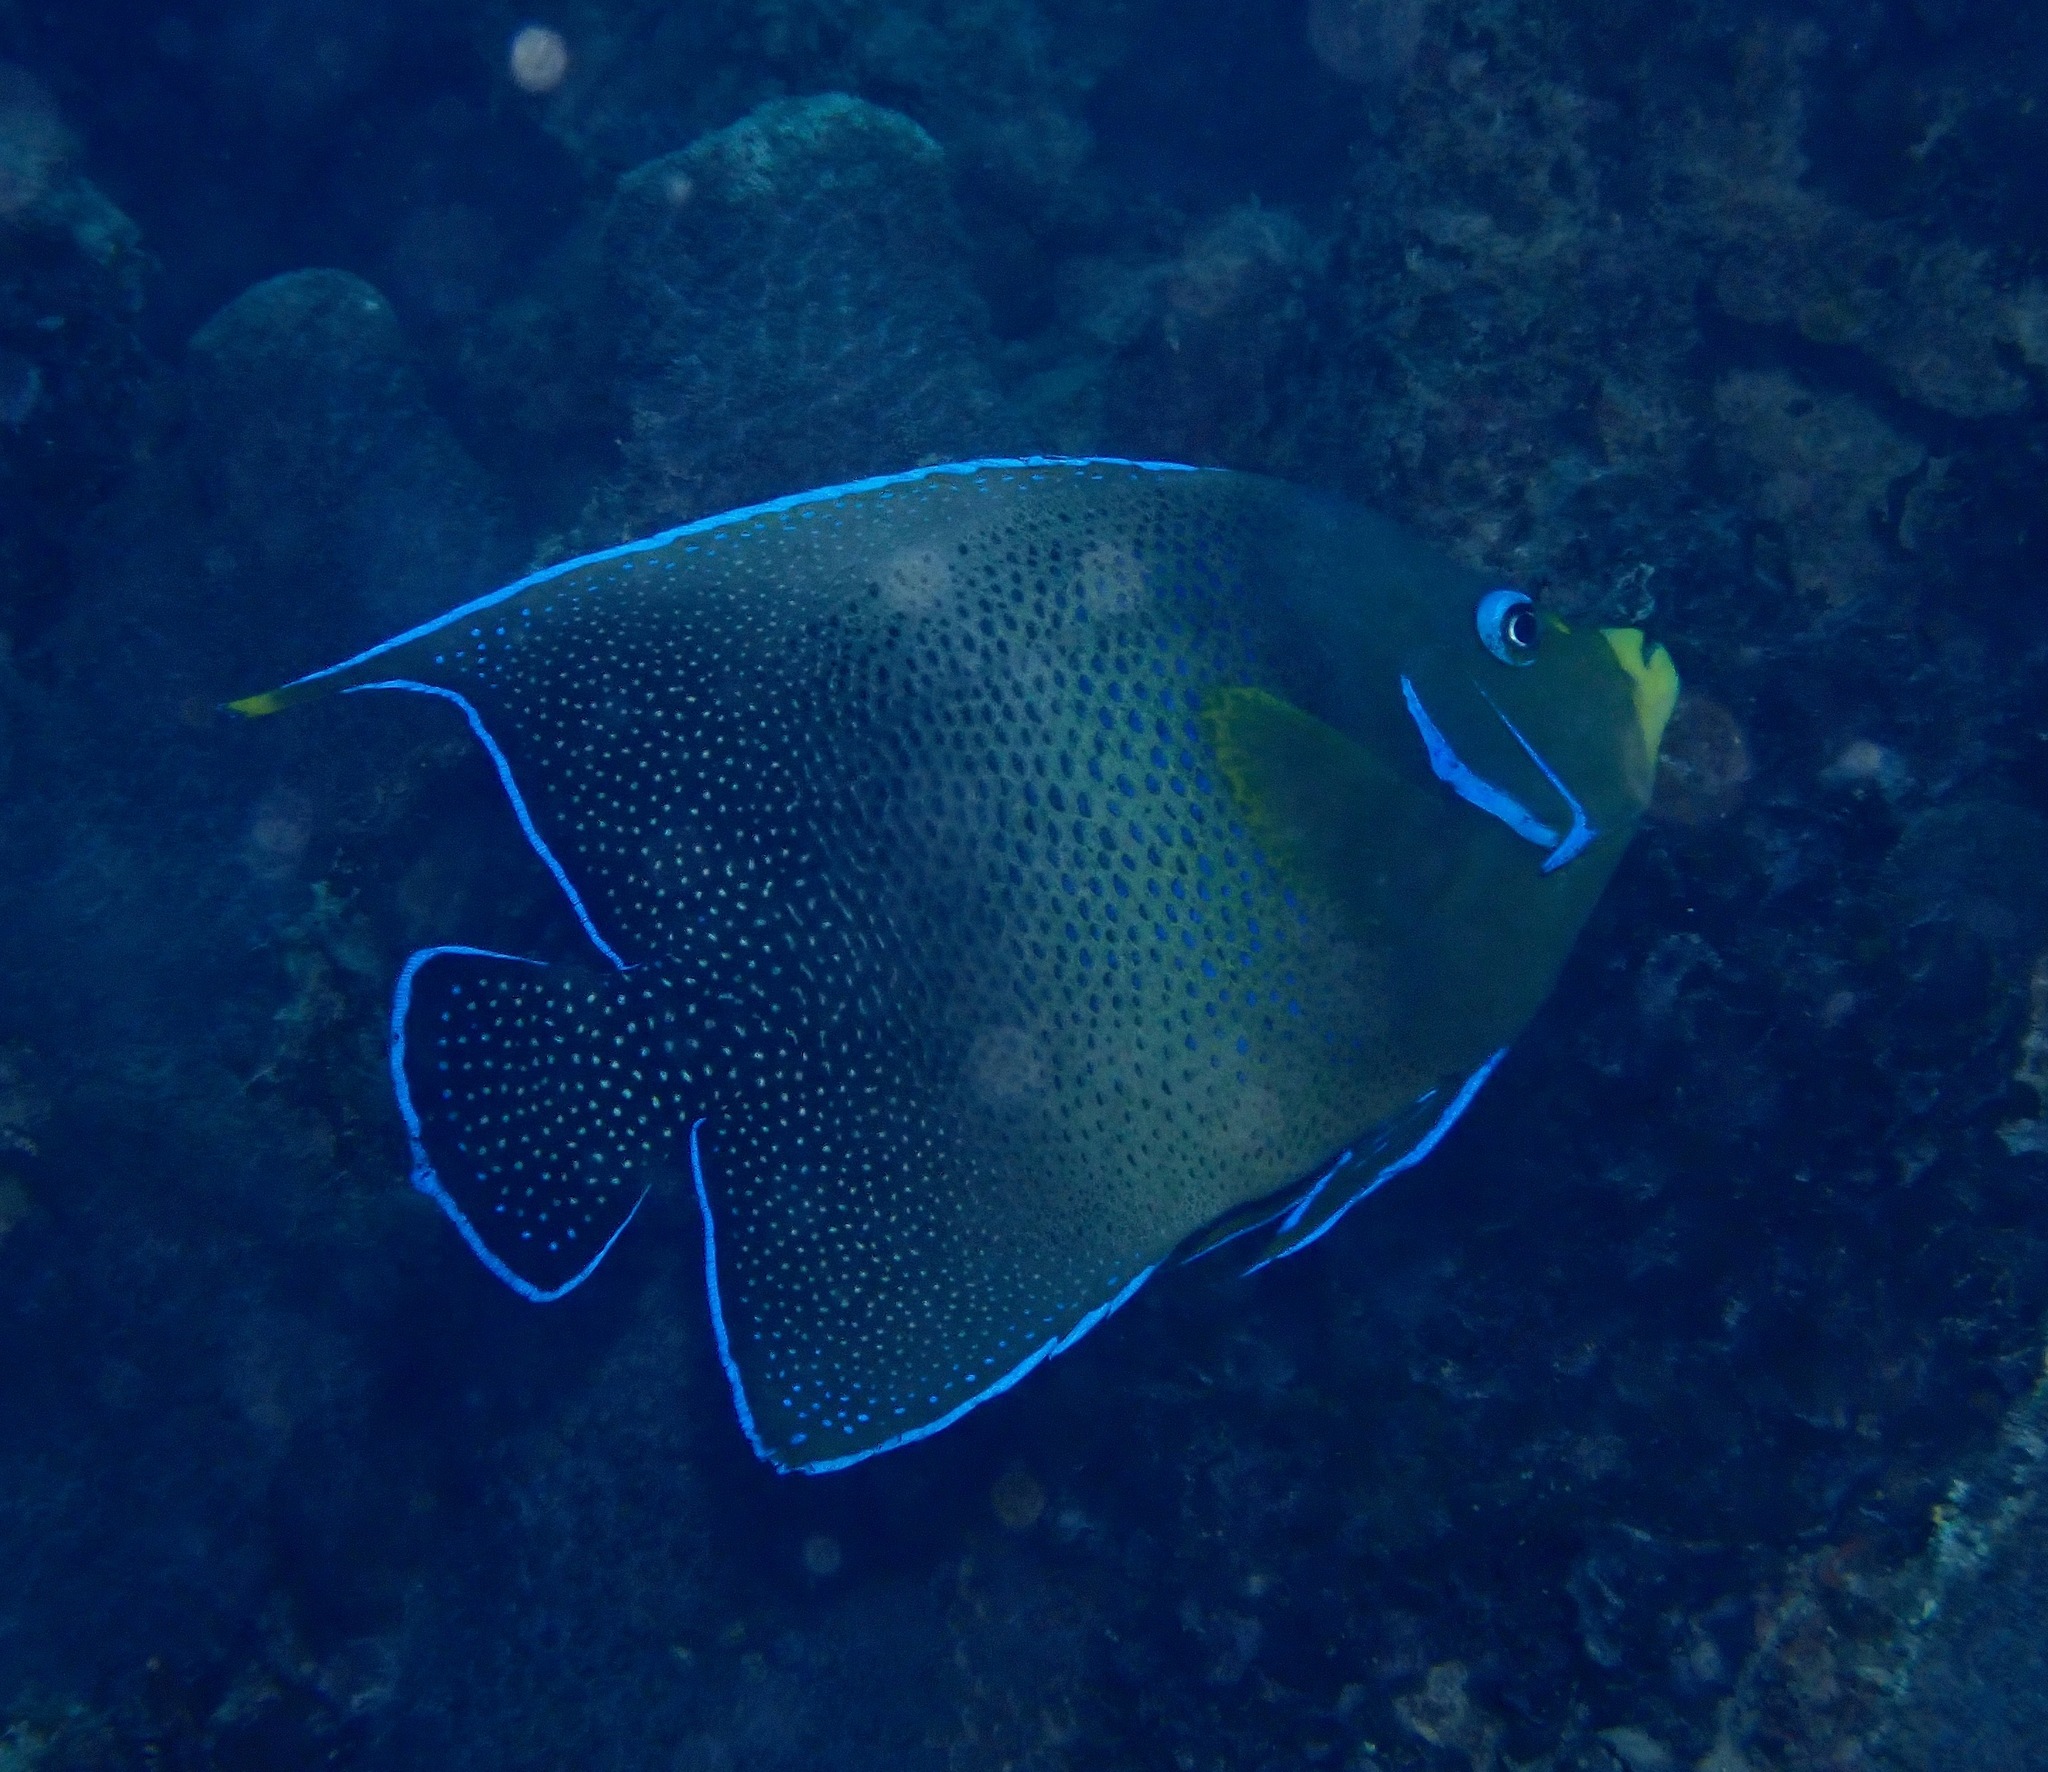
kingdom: Animalia
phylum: Chordata
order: Perciformes
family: Pomacanthidae
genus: Pomacanthus
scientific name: Pomacanthus semicirculatus
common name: Semicircle angelfish
